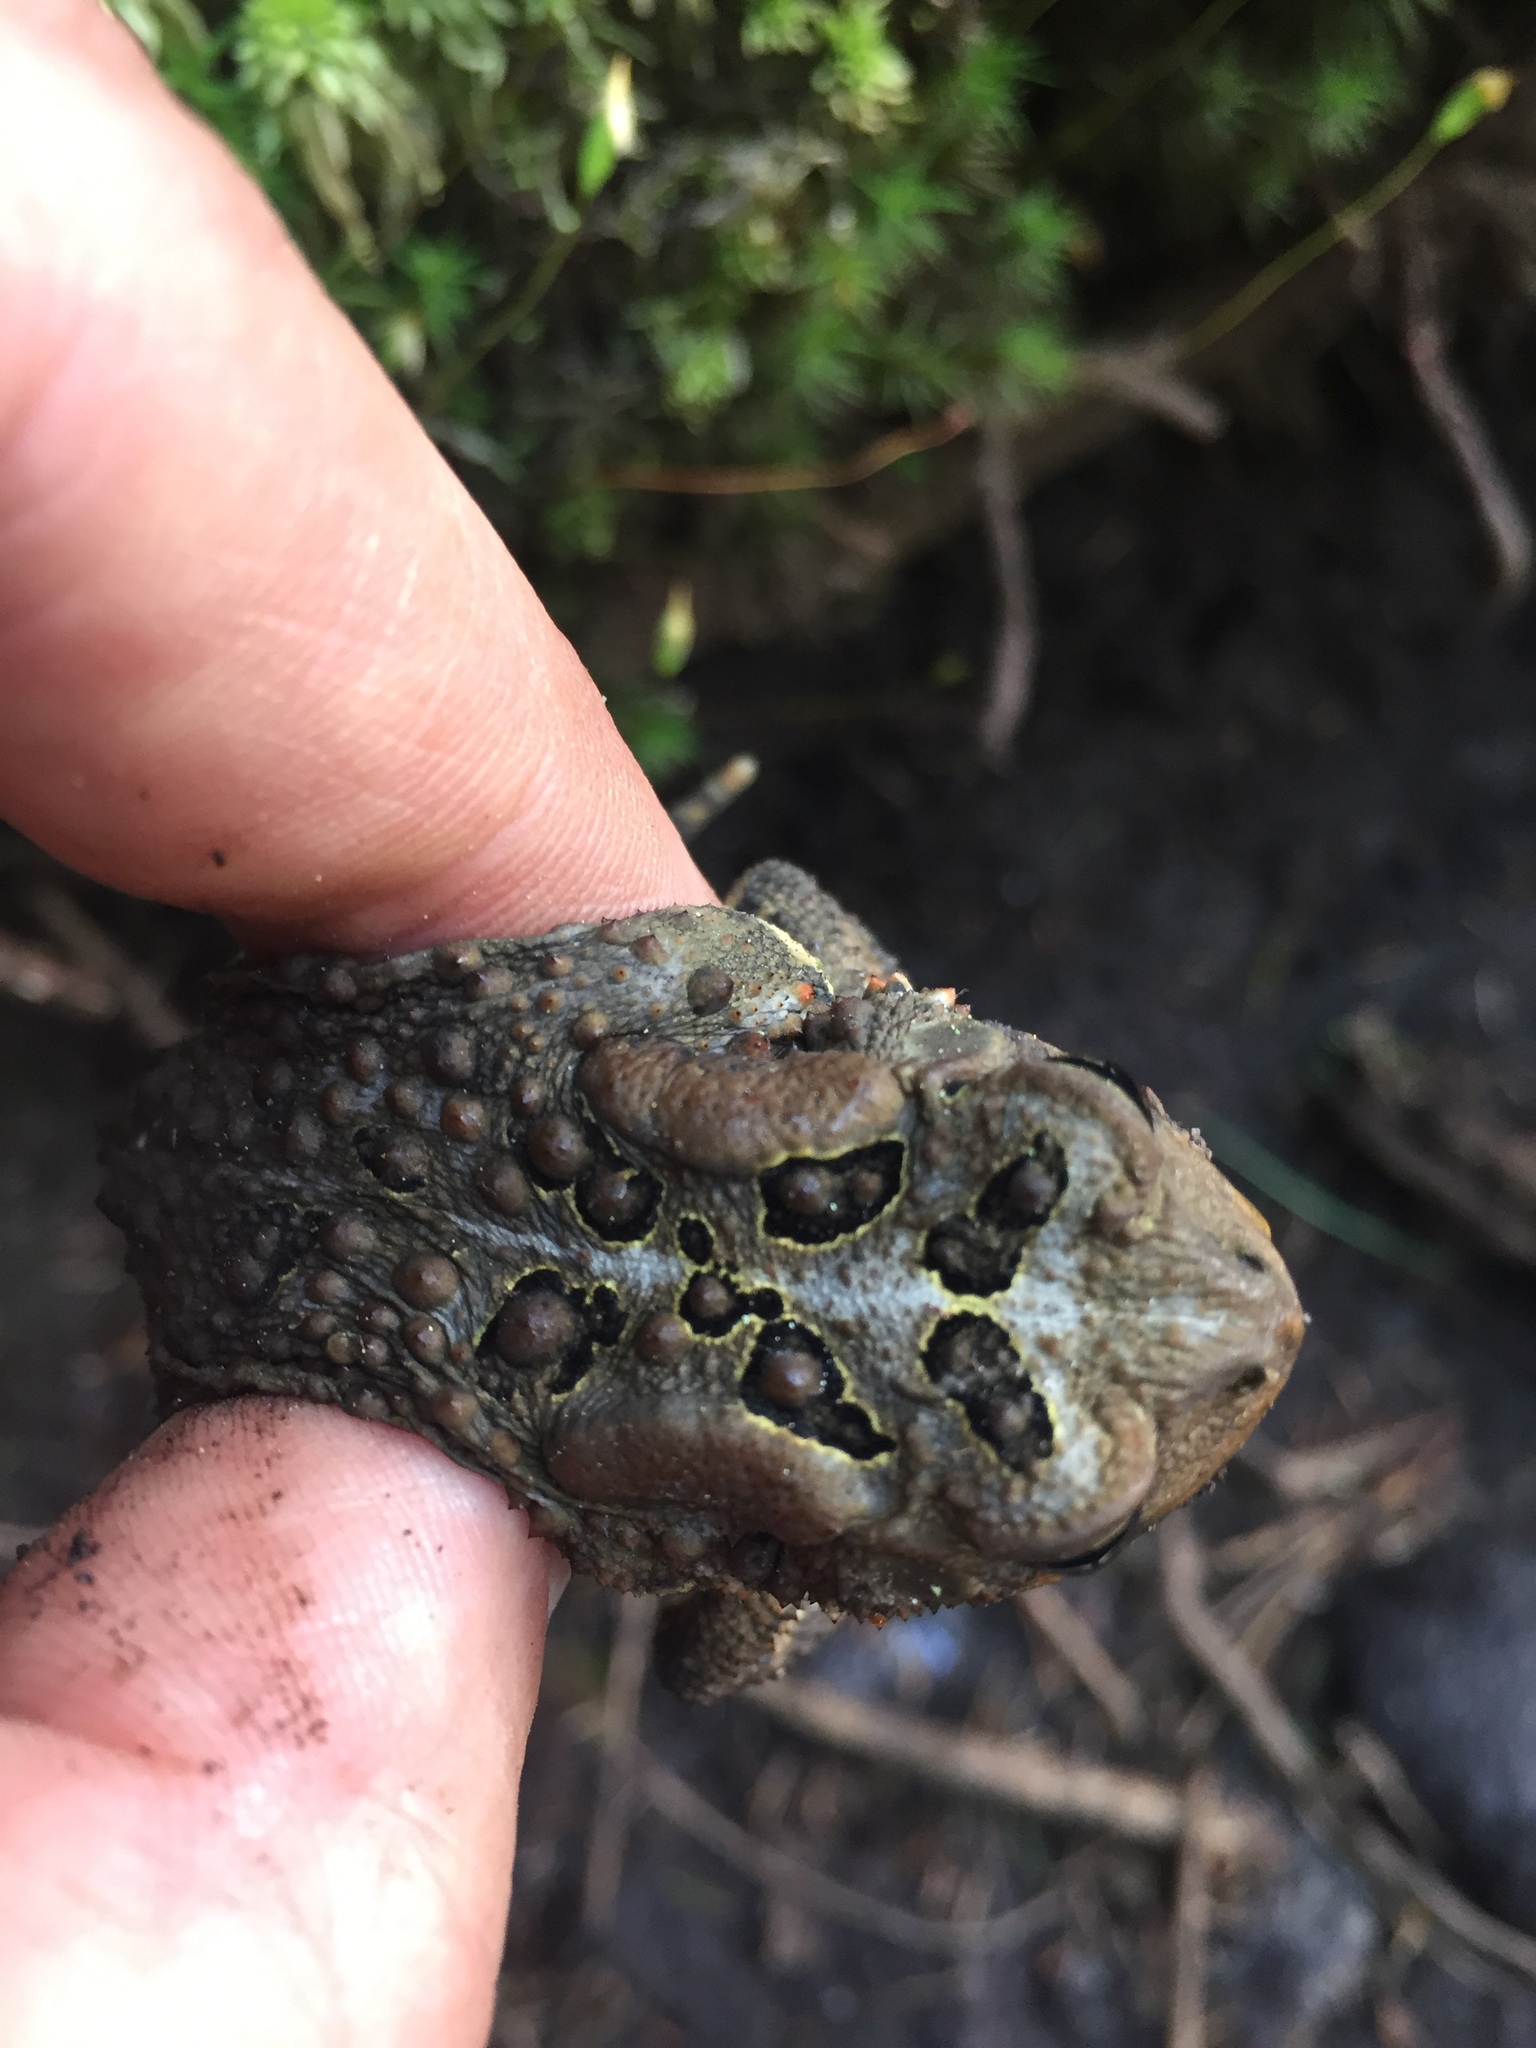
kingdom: Animalia
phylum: Chordata
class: Amphibia
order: Anura
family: Bufonidae
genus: Anaxyrus
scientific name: Anaxyrus americanus
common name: American toad
